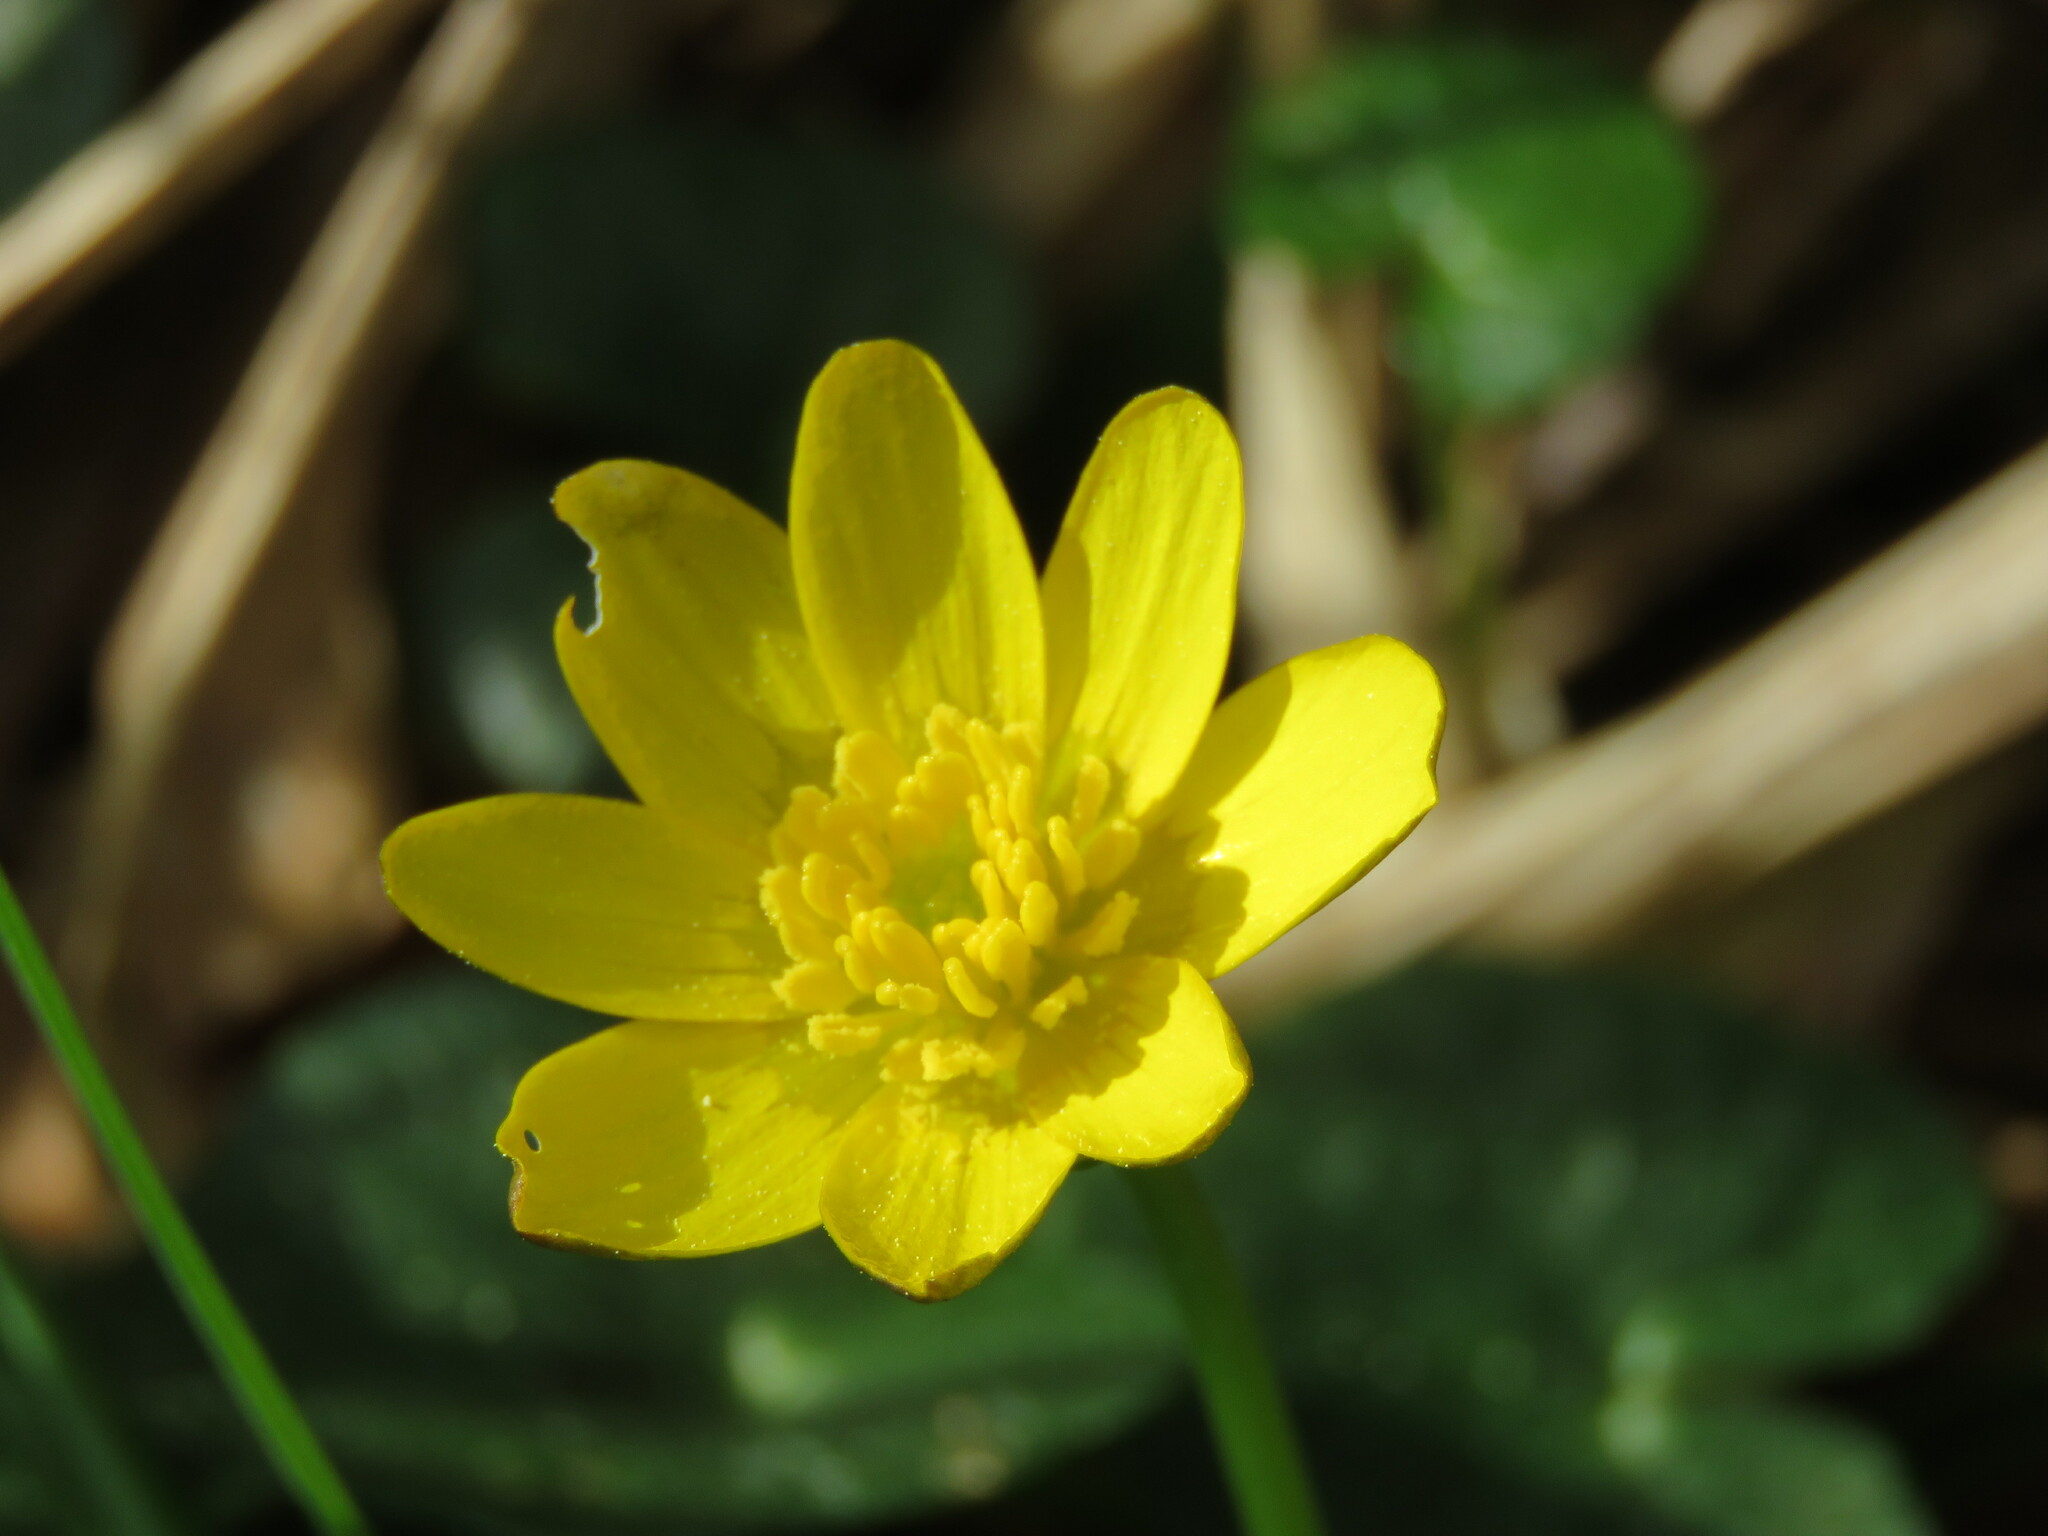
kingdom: Plantae
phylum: Tracheophyta
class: Magnoliopsida
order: Ranunculales
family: Ranunculaceae
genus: Ficaria
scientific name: Ficaria verna
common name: Lesser celandine
